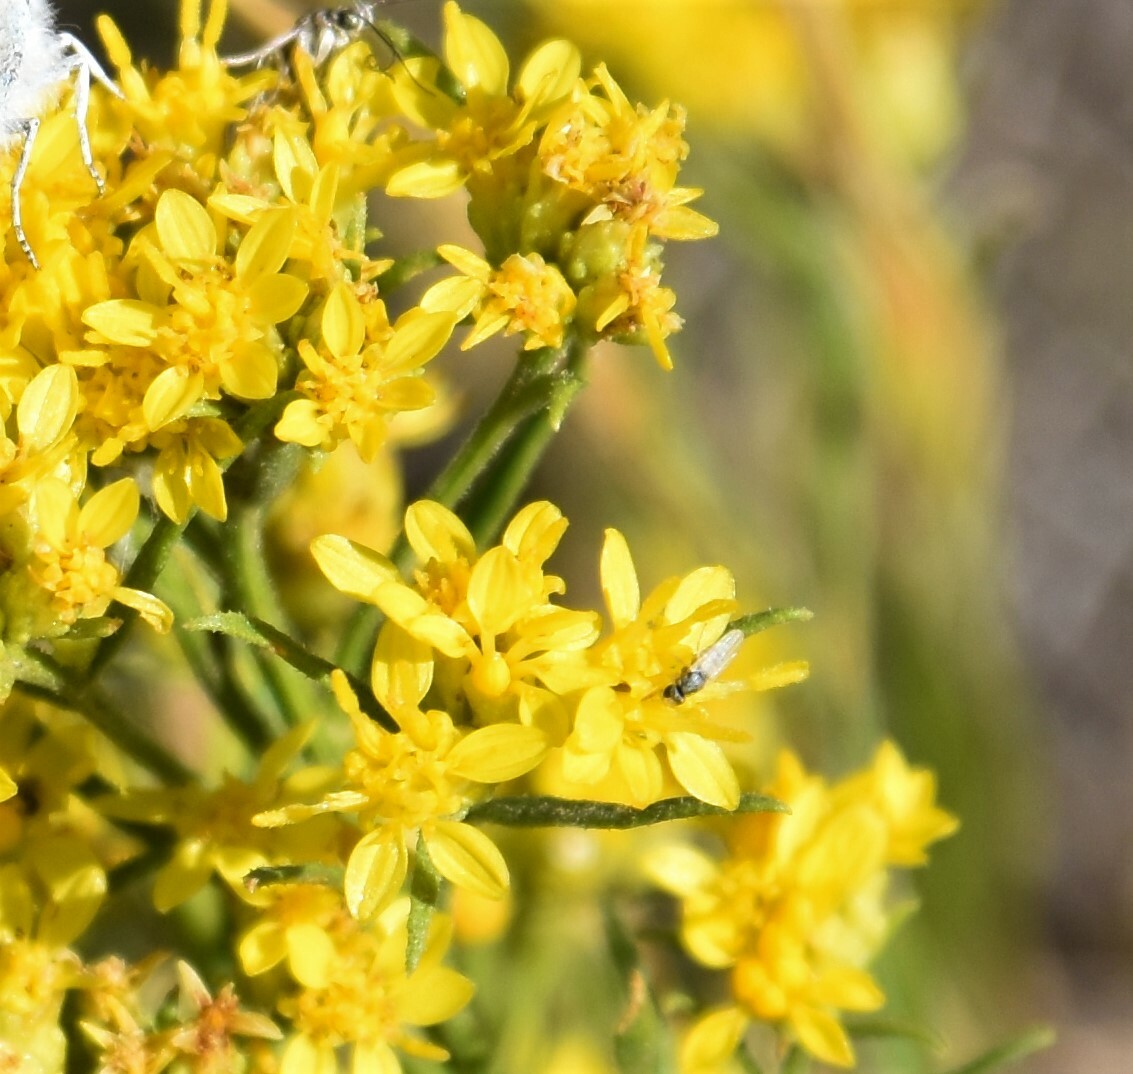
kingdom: Plantae
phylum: Tracheophyta
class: Magnoliopsida
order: Asterales
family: Asteraceae
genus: Gutierrezia
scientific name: Gutierrezia sarothrae
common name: Broom snakeweed
